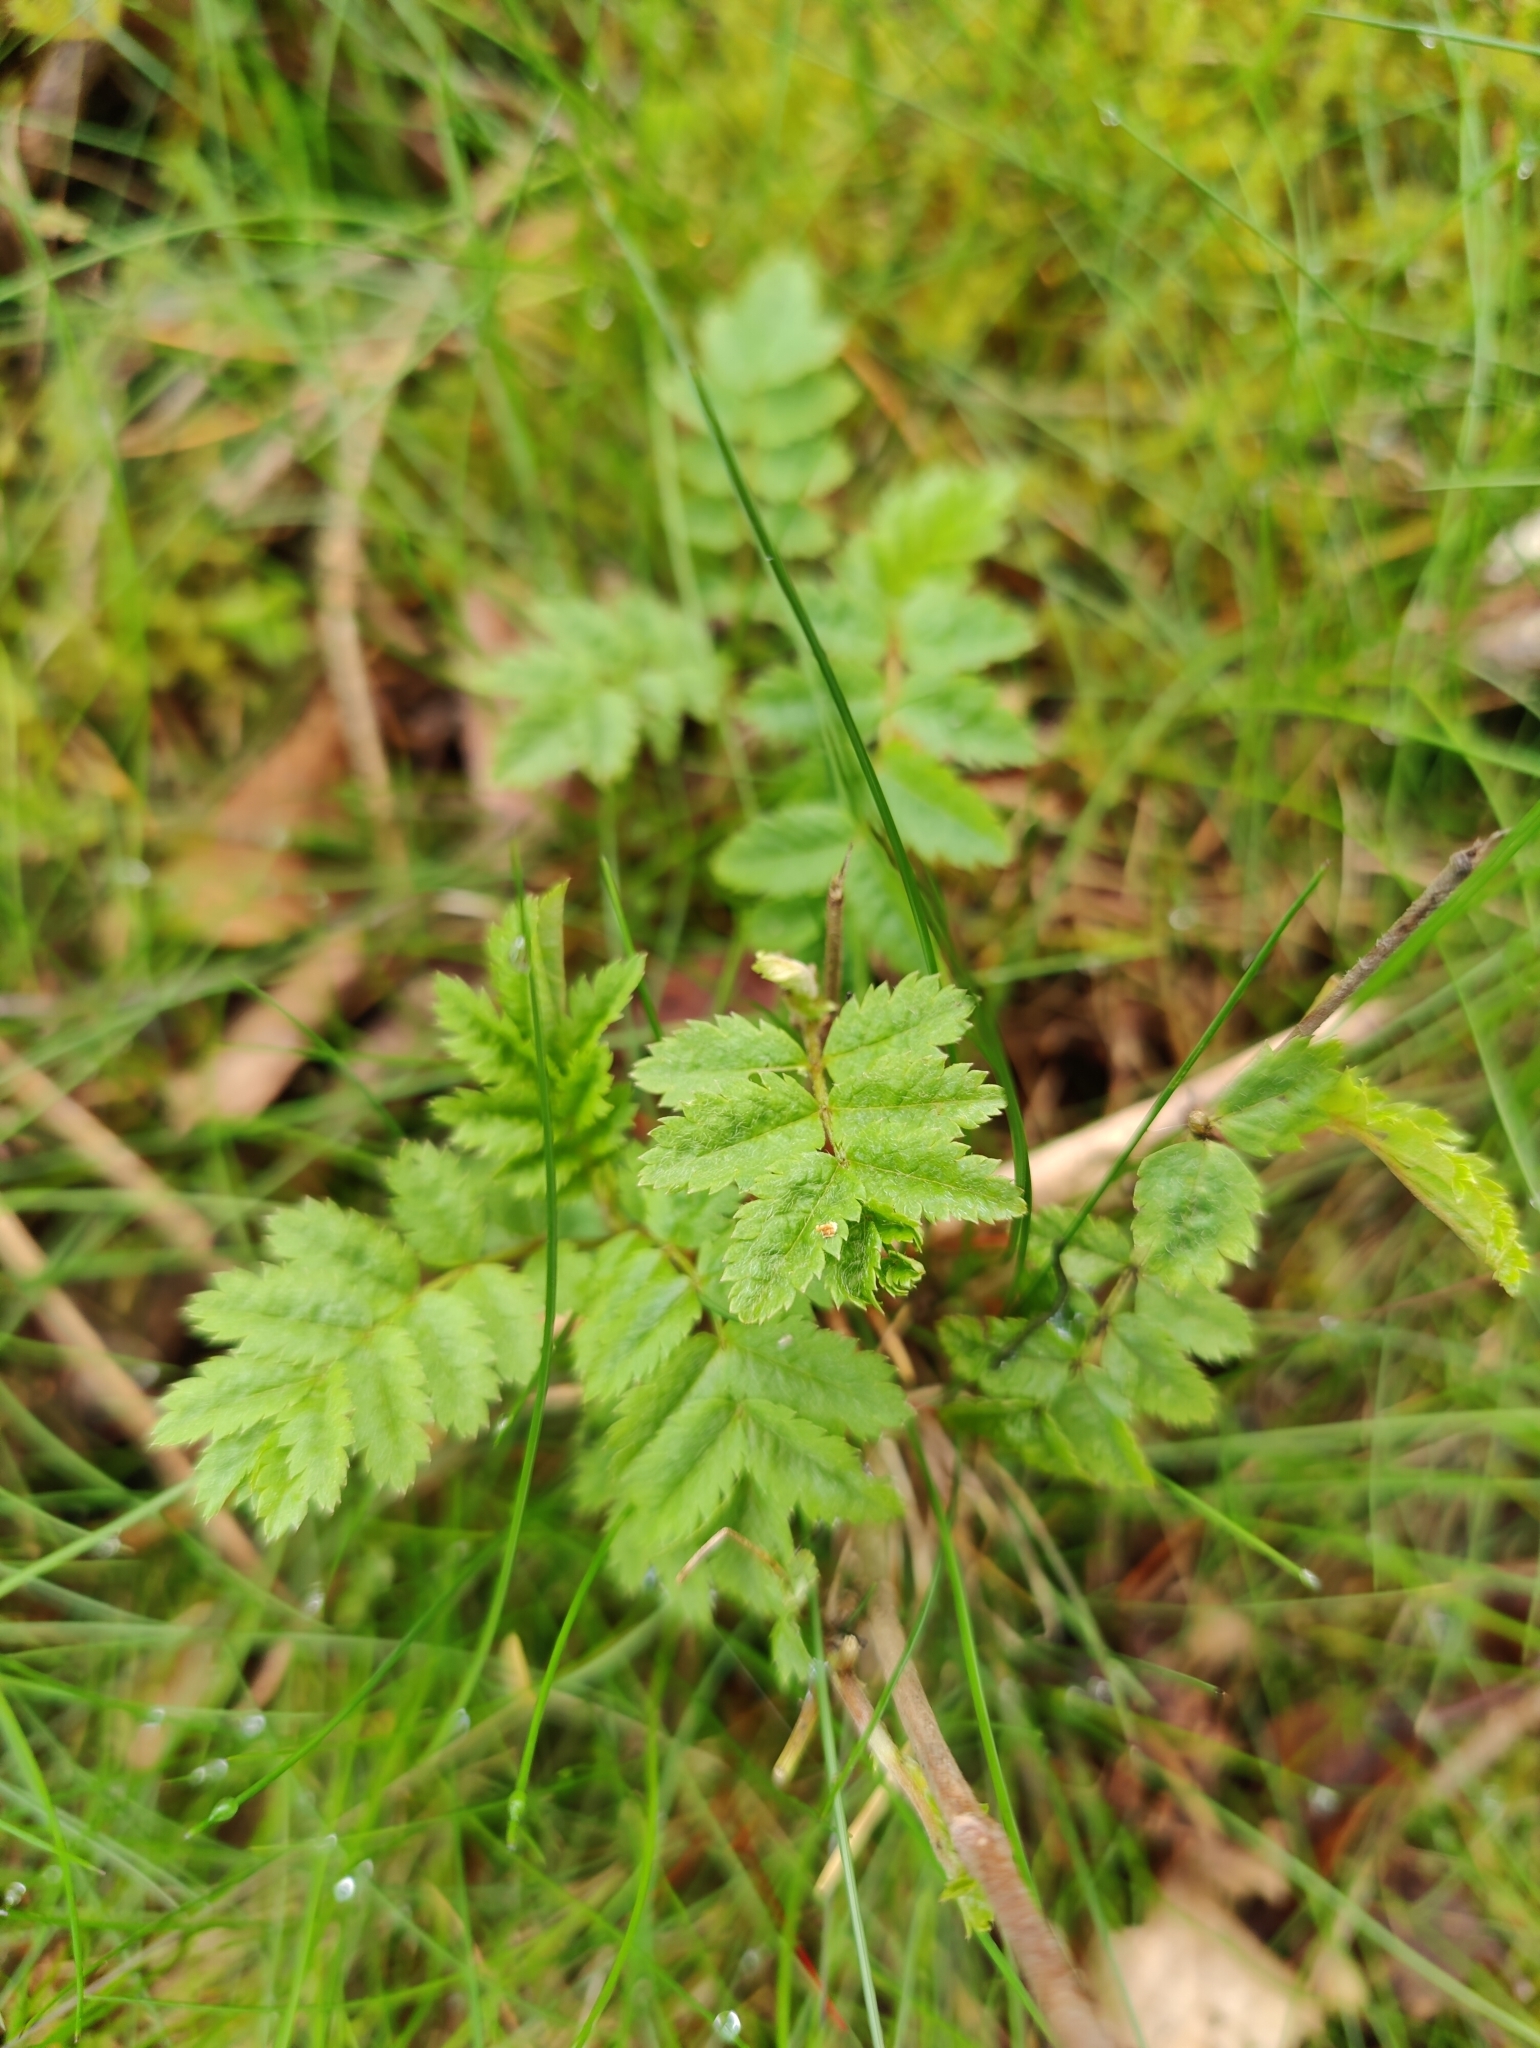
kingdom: Plantae
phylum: Tracheophyta
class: Magnoliopsida
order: Rosales
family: Rosaceae
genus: Sorbus
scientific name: Sorbus aucuparia
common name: Rowan
